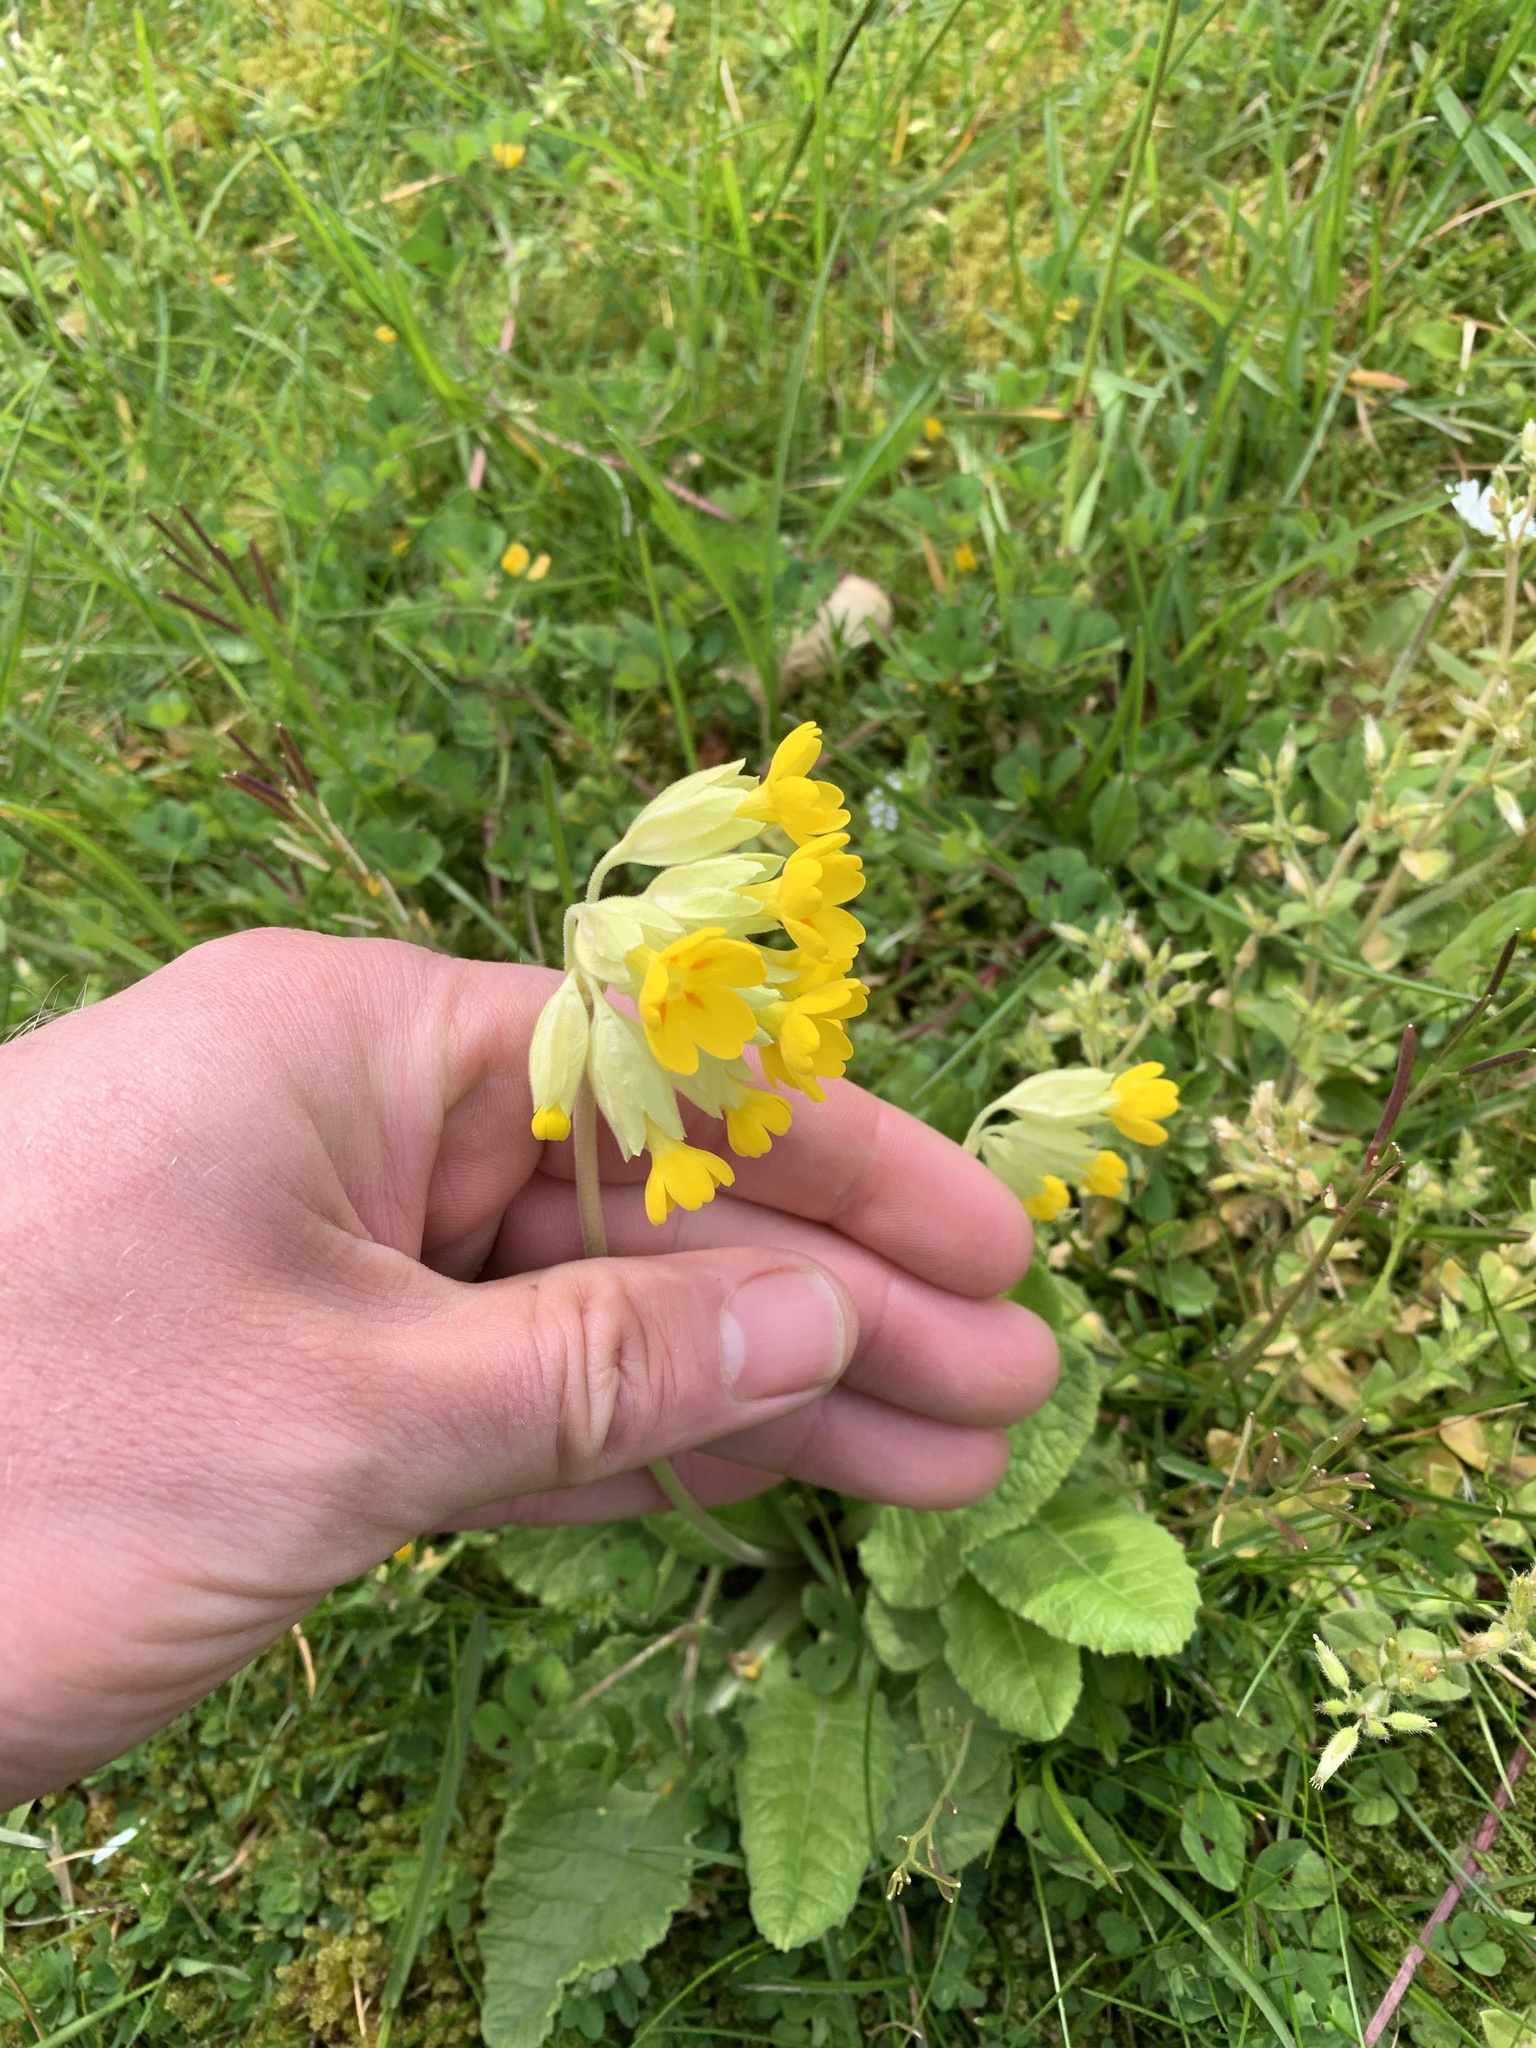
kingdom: Plantae
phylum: Tracheophyta
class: Magnoliopsida
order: Ericales
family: Primulaceae
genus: Primula
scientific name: Primula veris
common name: Cowslip
